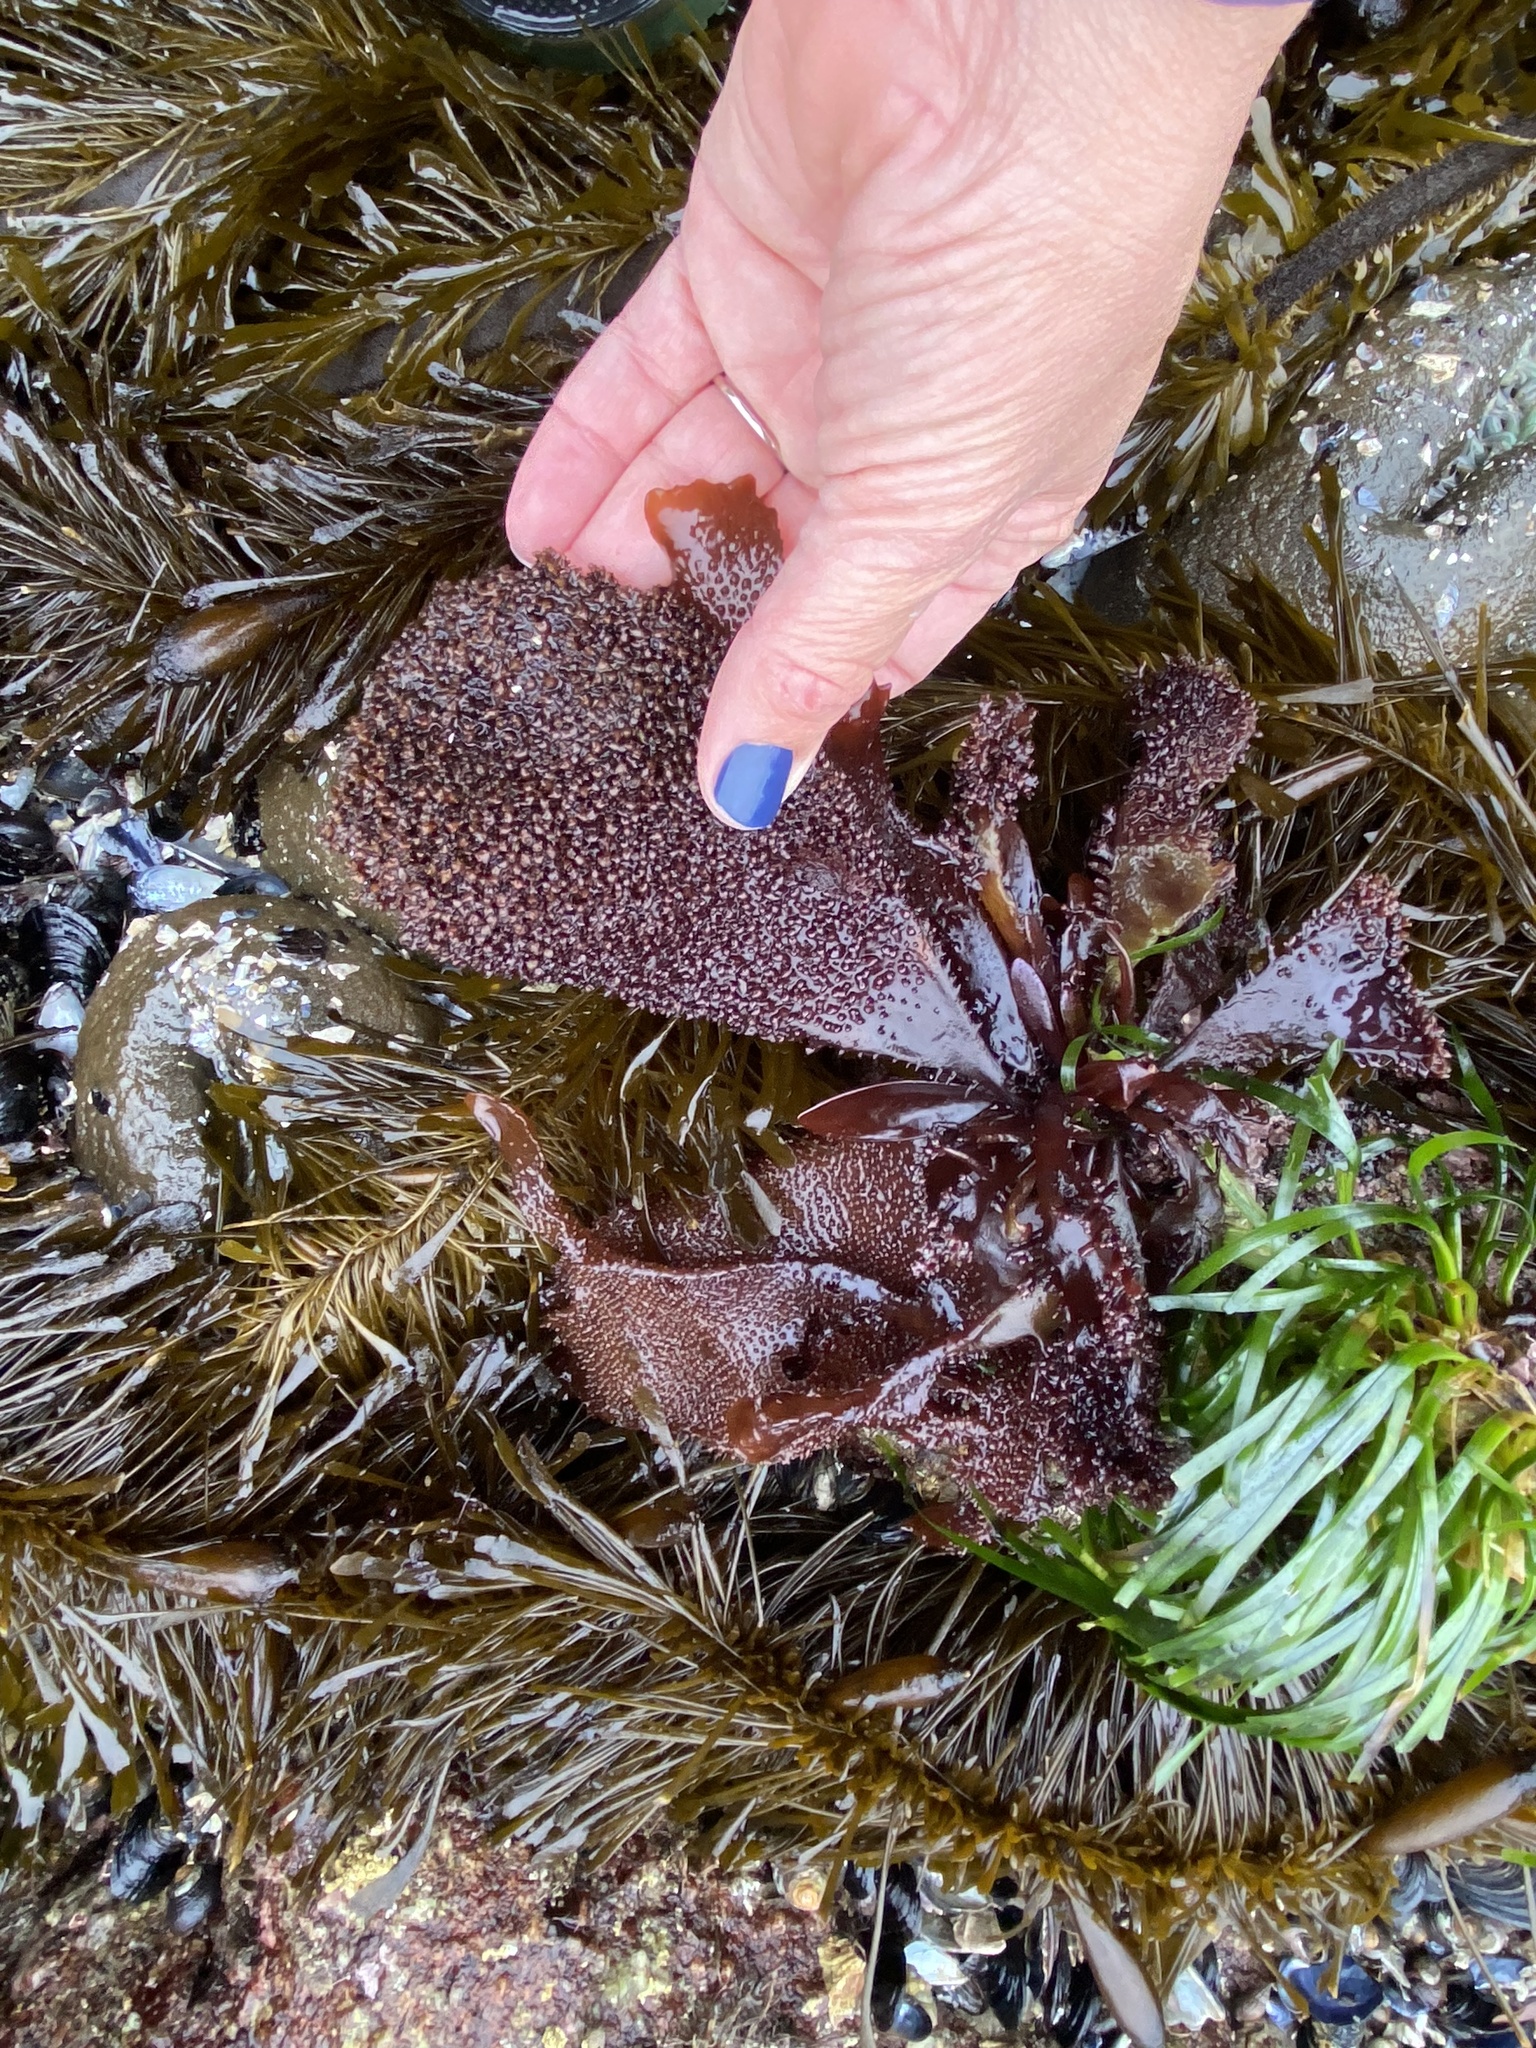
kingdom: Plantae
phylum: Rhodophyta
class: Florideophyceae
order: Gigartinales
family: Gigartinaceae
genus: Chondracanthus
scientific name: Chondracanthus exasperatus
